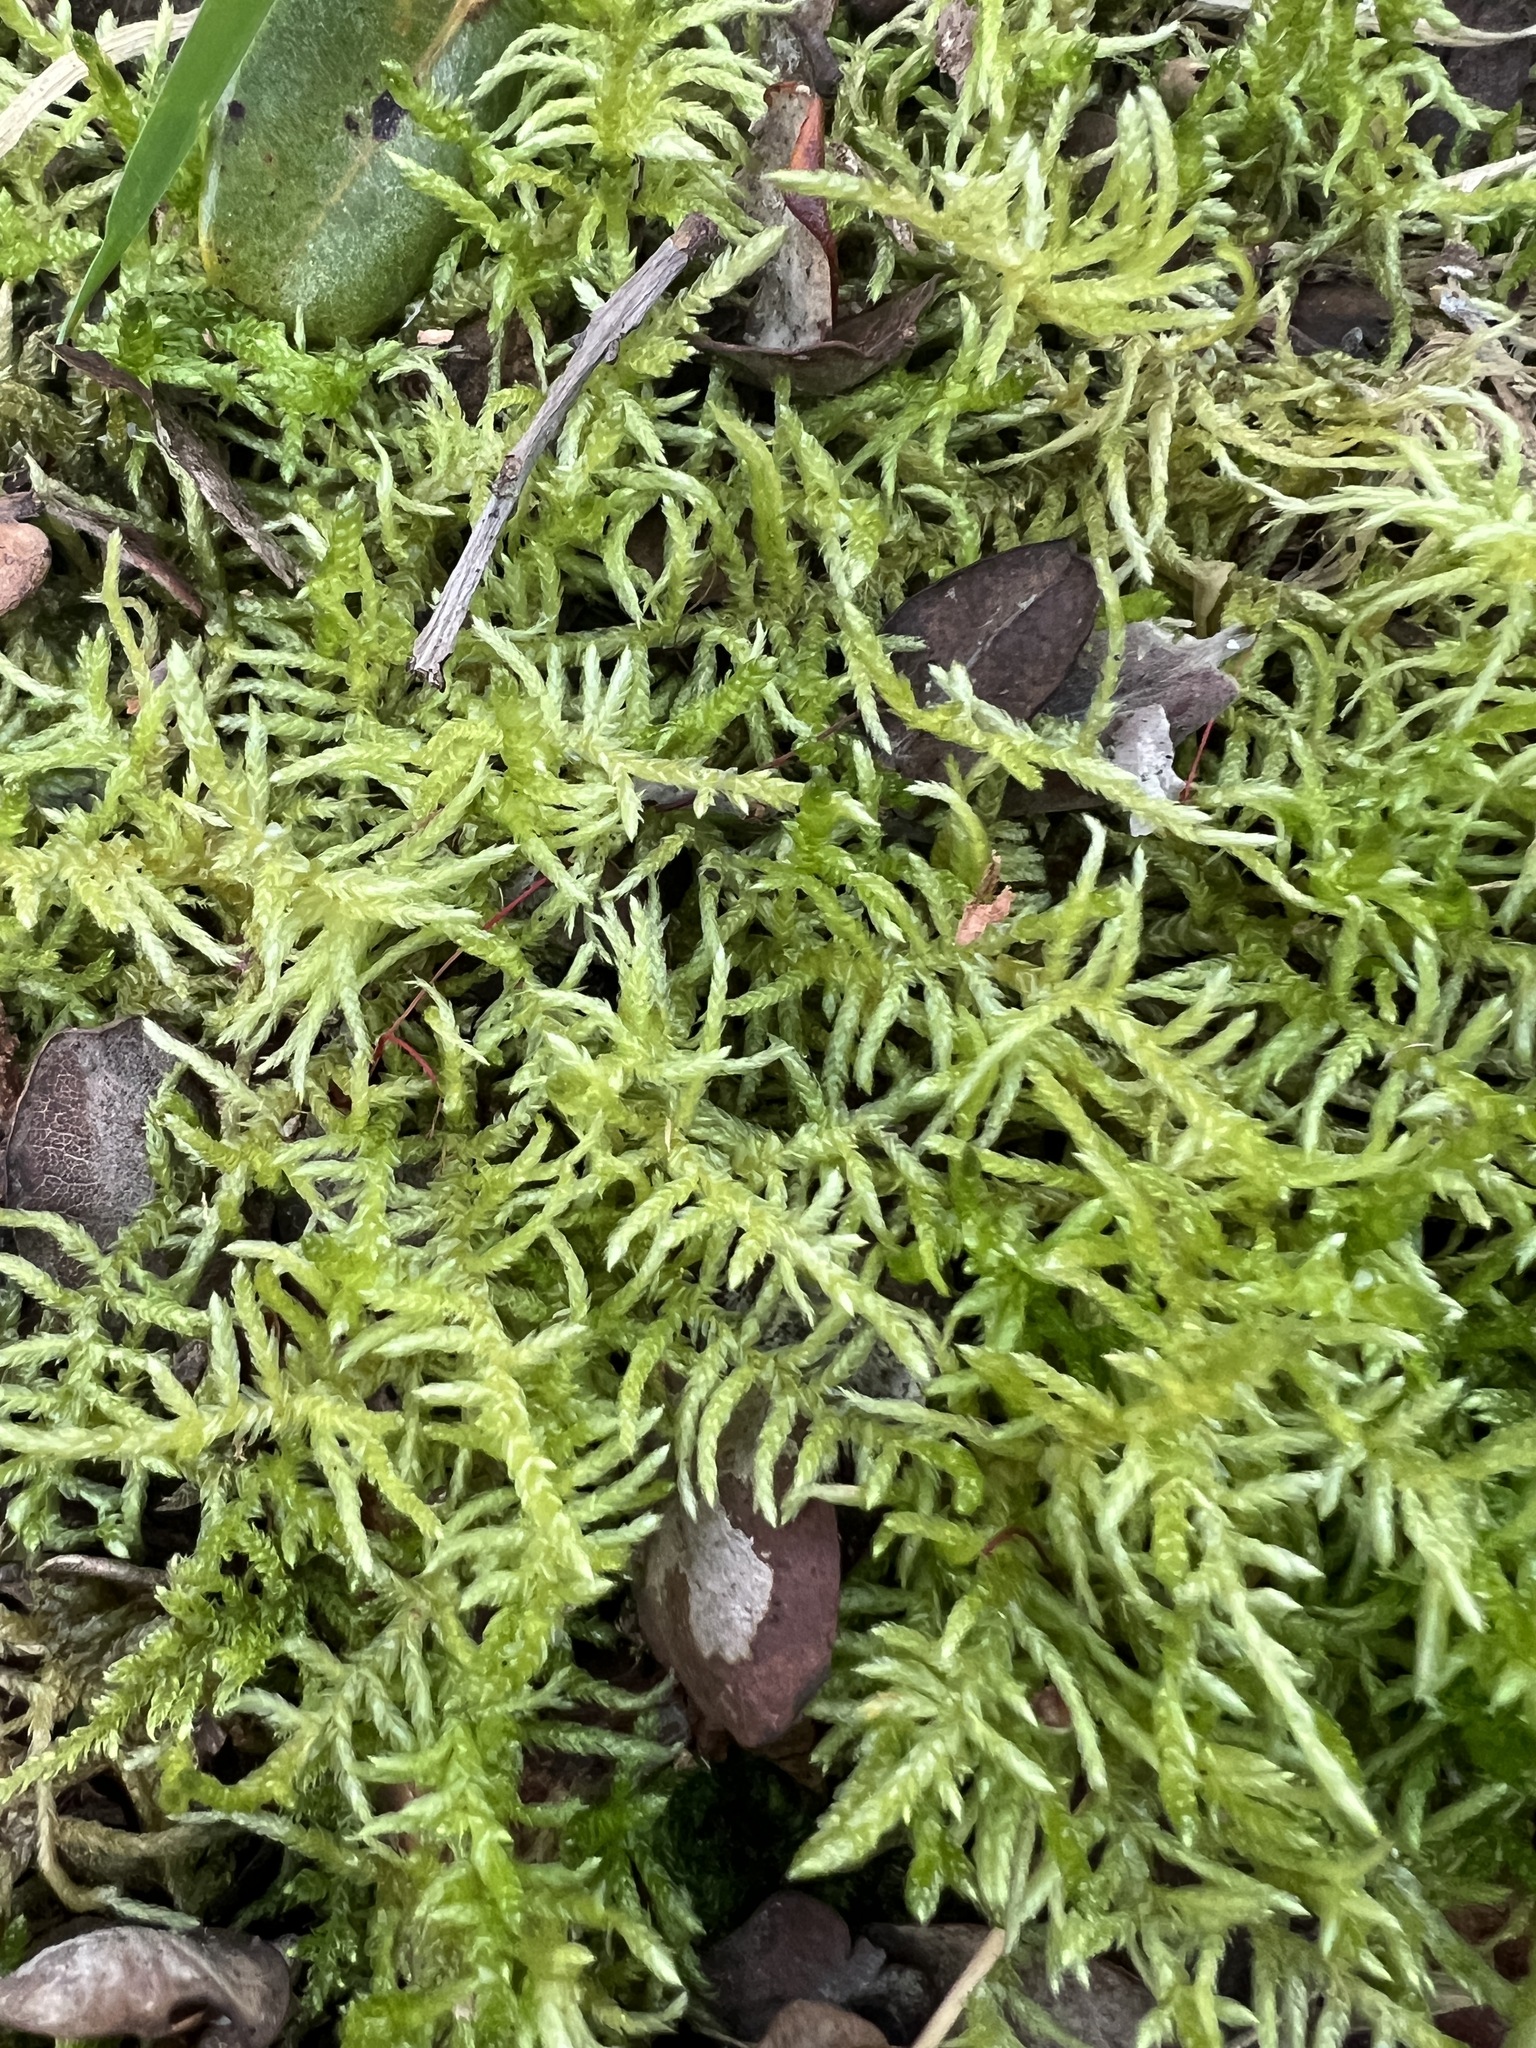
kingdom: Plantae
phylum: Bryophyta
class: Bryopsida
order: Hypnales
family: Brachytheciaceae
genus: Pseudoscleropodium
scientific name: Pseudoscleropodium purum
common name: Neat feather-moss
